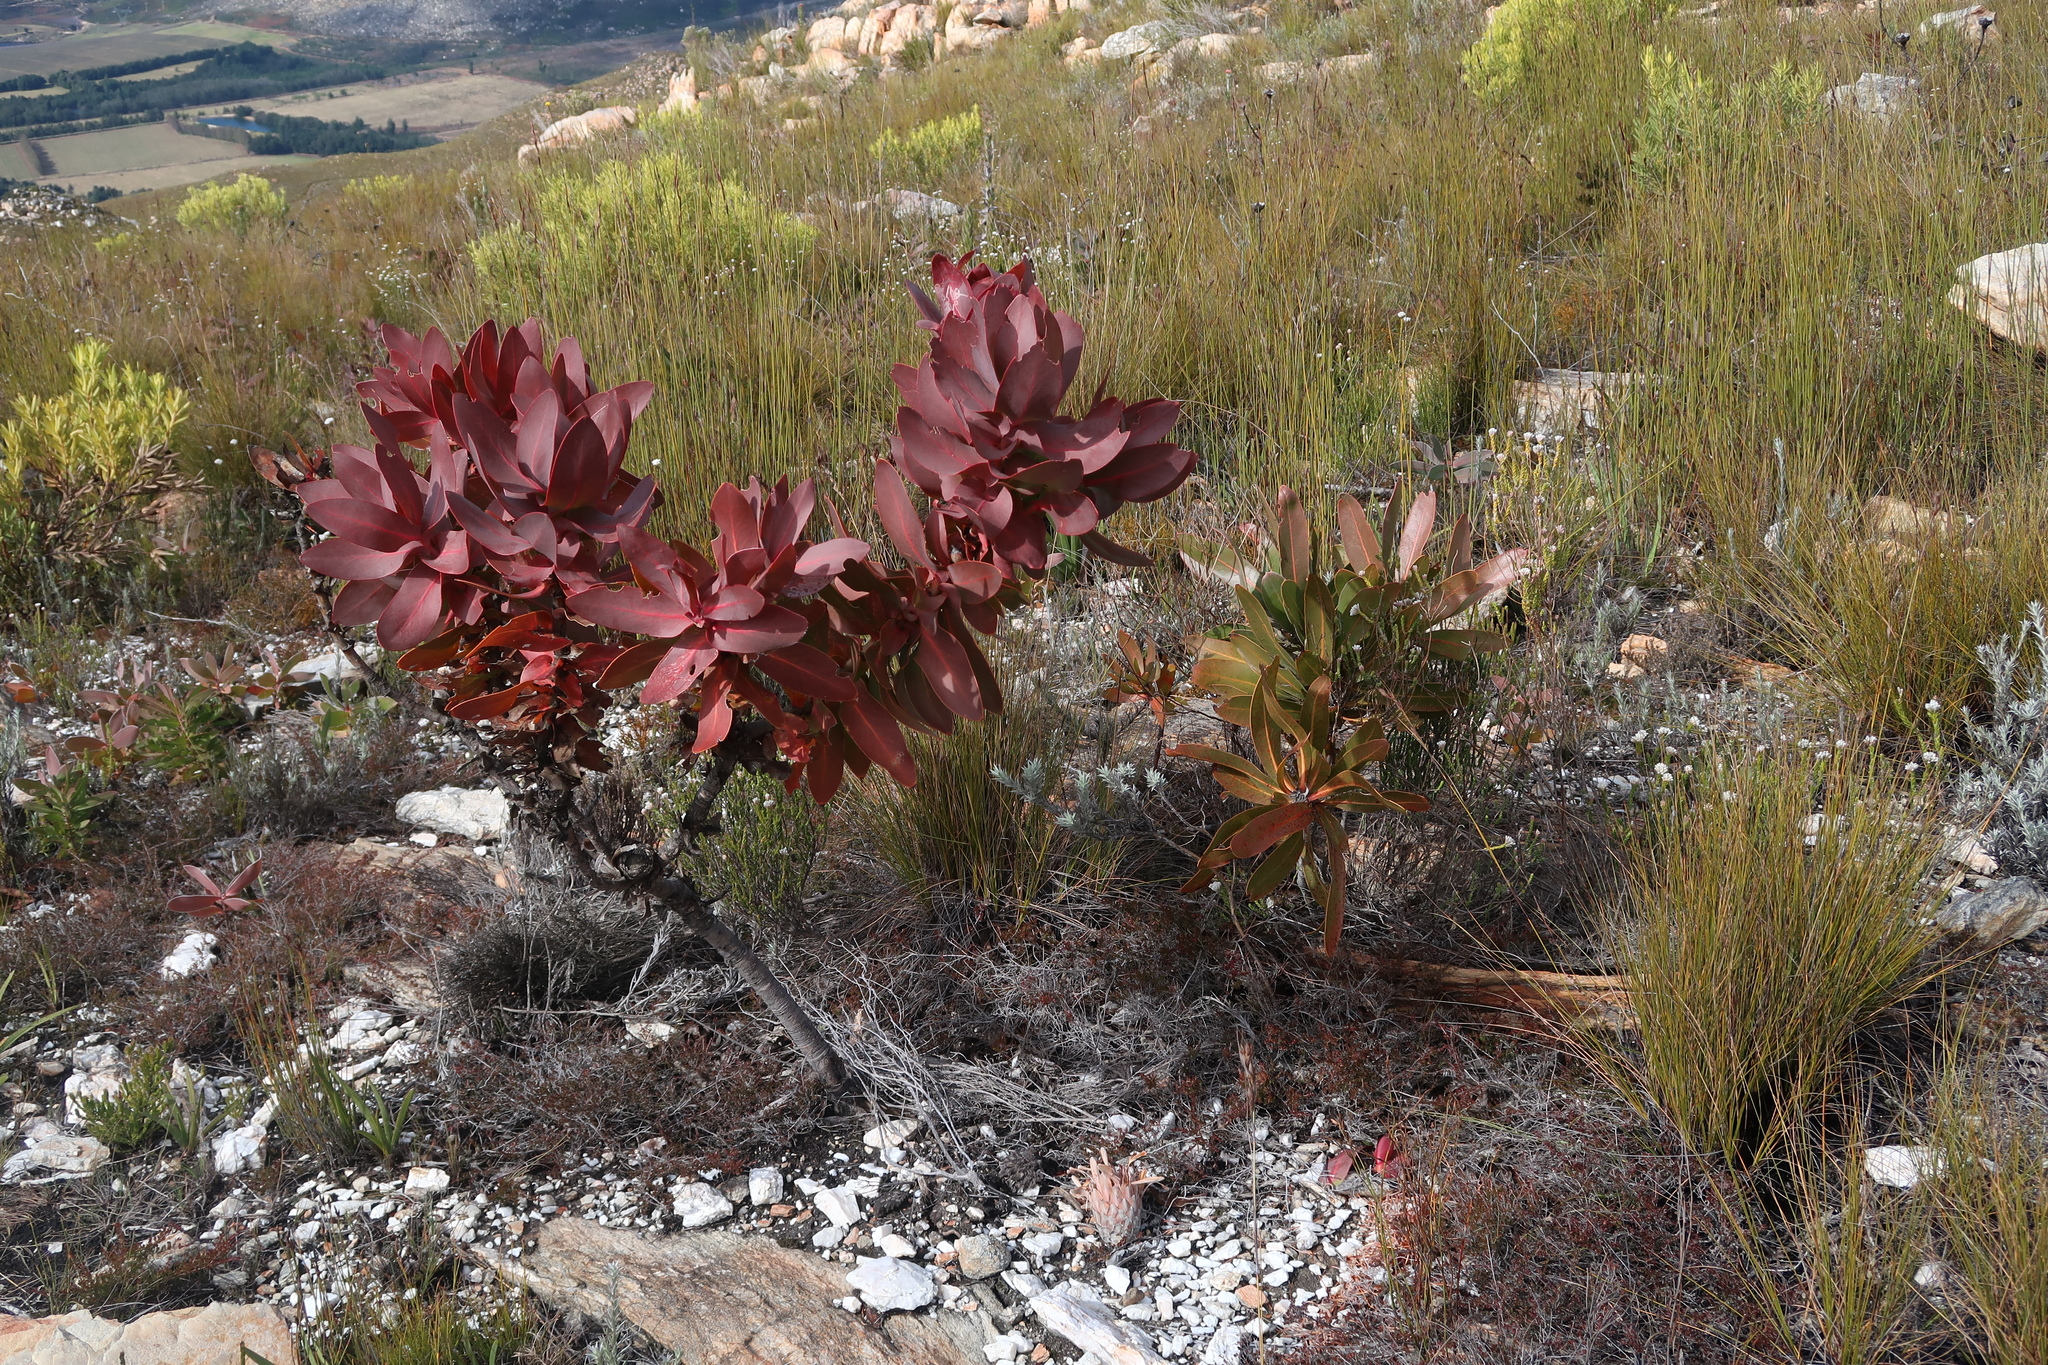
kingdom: Plantae
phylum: Tracheophyta
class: Magnoliopsida
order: Proteales
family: Proteaceae
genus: Protea
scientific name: Protea eximia
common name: Broad-leaved sugarbush
